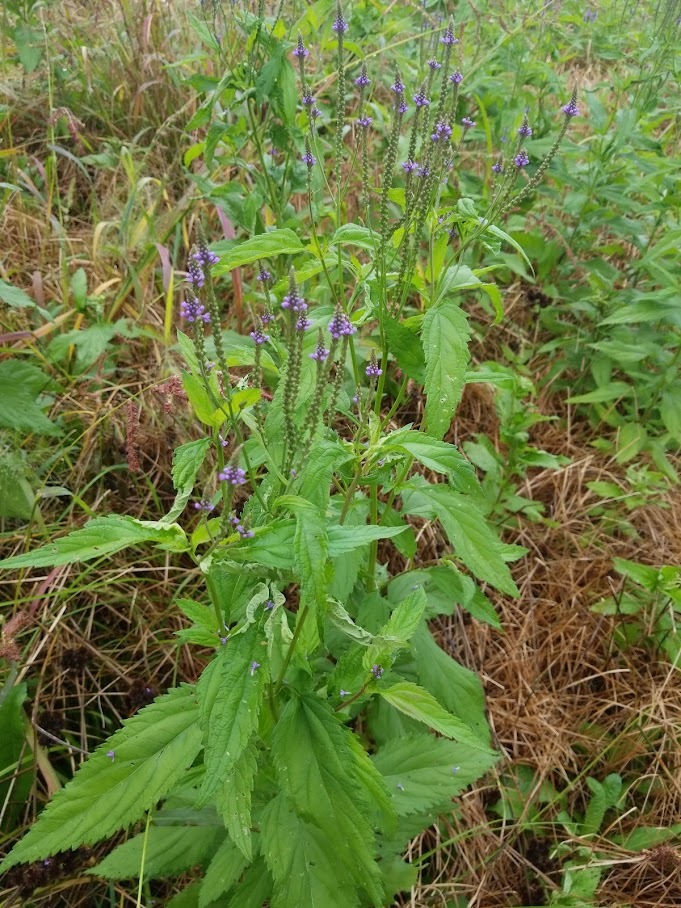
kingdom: Plantae
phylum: Tracheophyta
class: Magnoliopsida
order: Lamiales
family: Verbenaceae
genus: Verbena
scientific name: Verbena hastata
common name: American blue vervain
